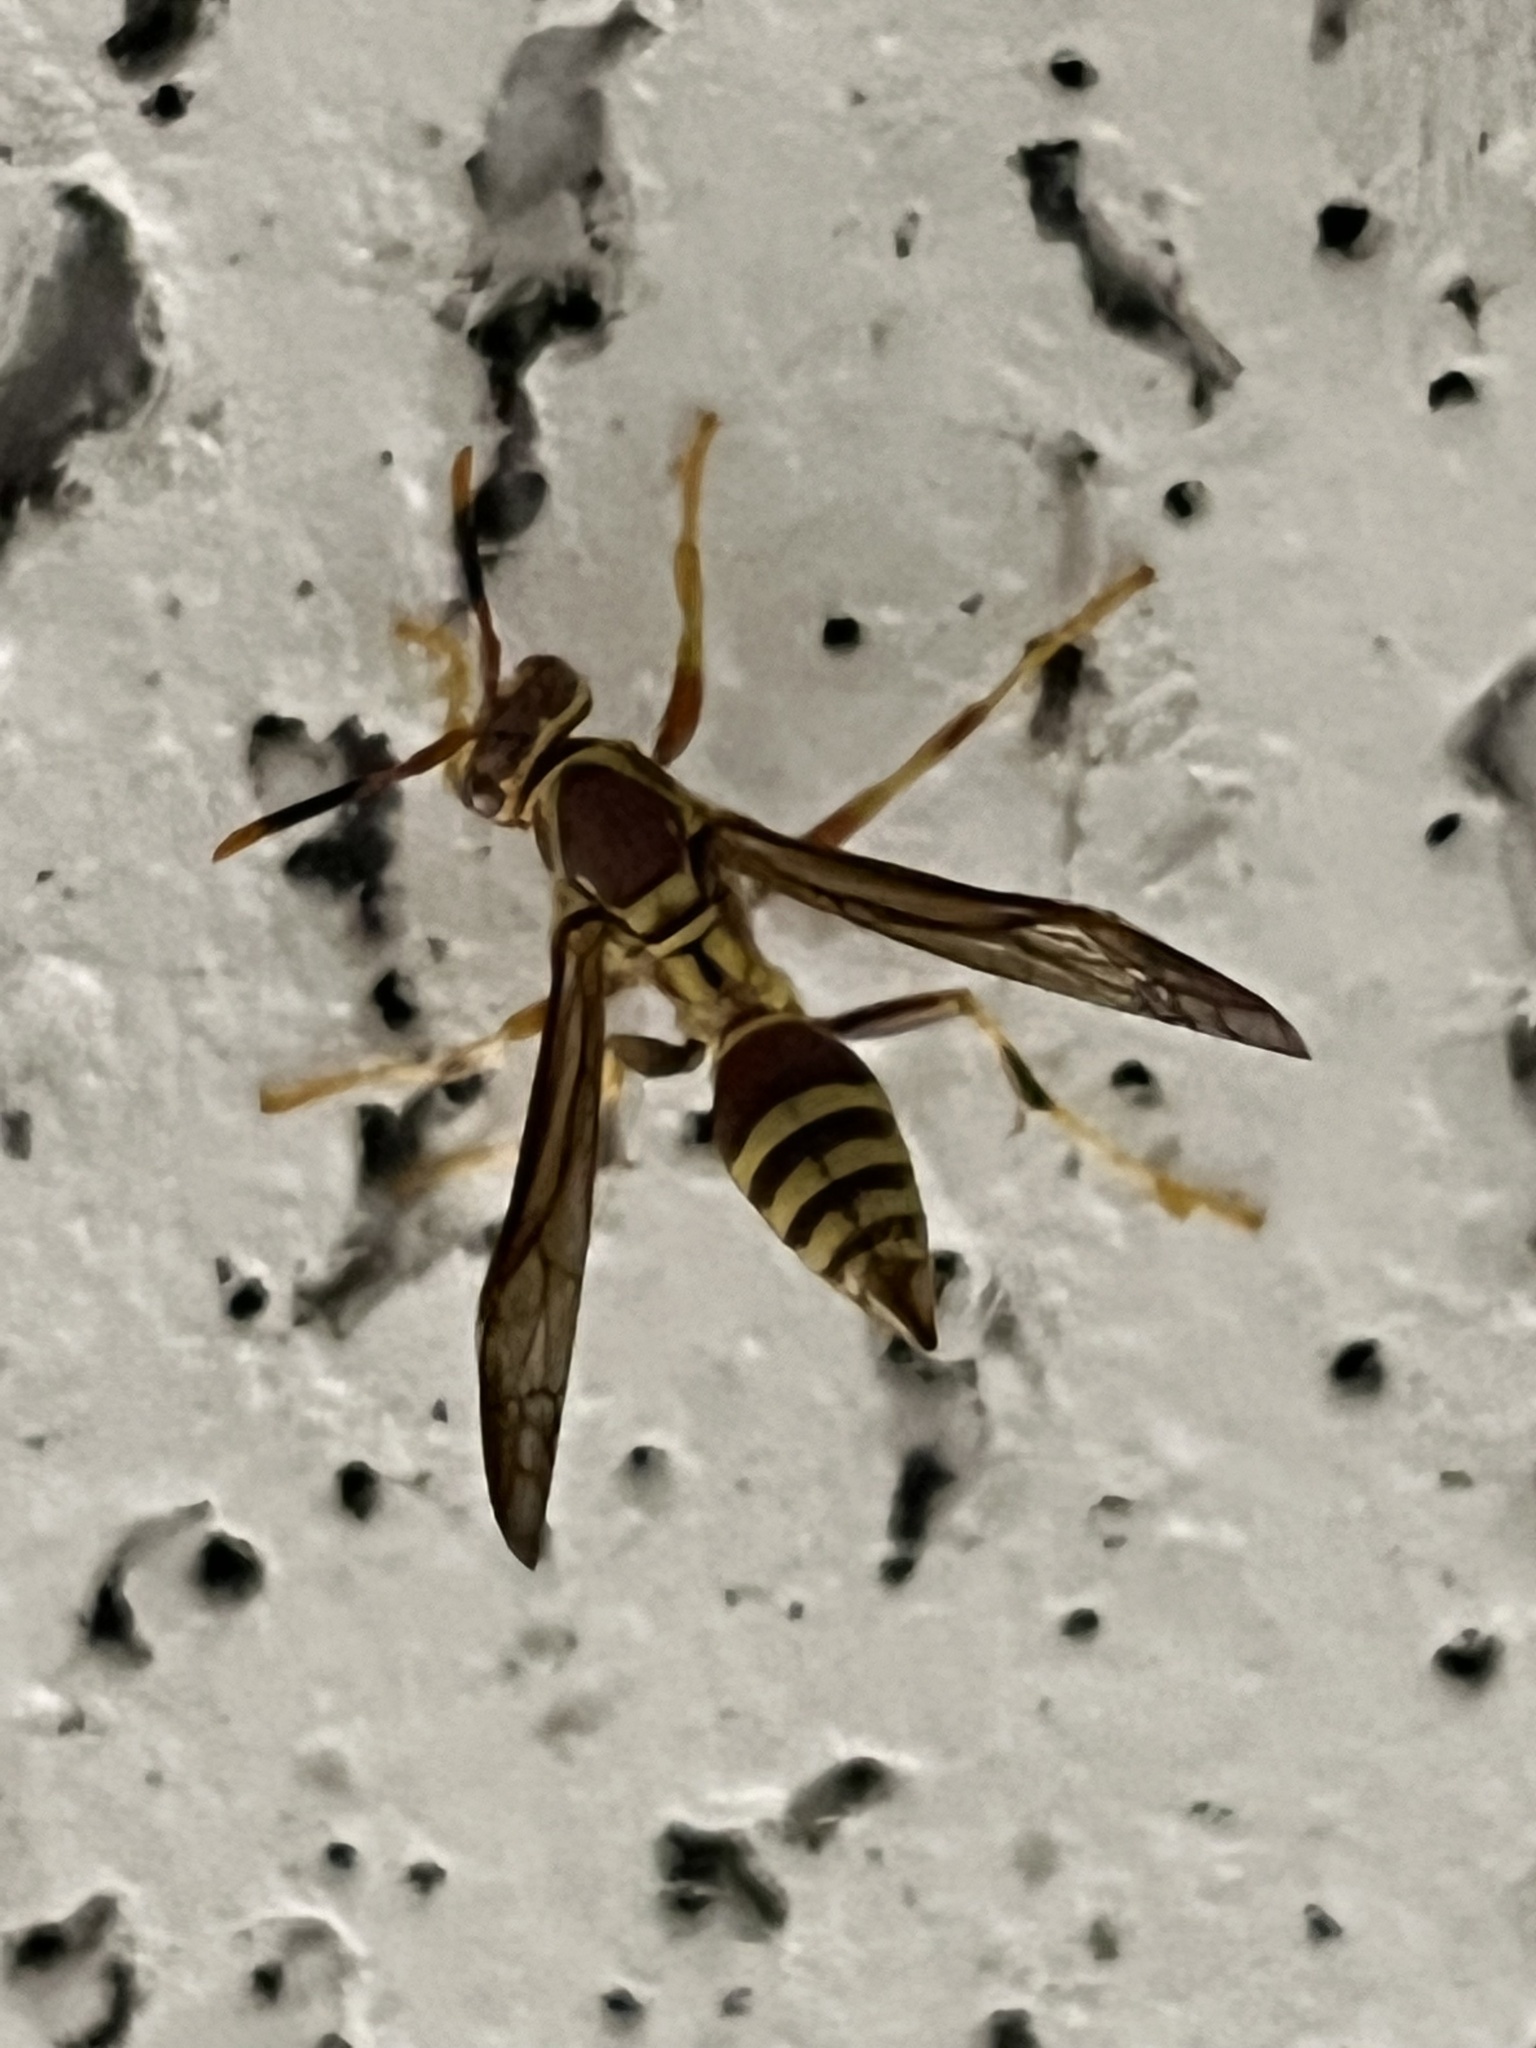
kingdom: Animalia
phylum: Arthropoda
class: Insecta
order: Hymenoptera
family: Eumenidae
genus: Polistes
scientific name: Polistes exclamans
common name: Paper wasp
